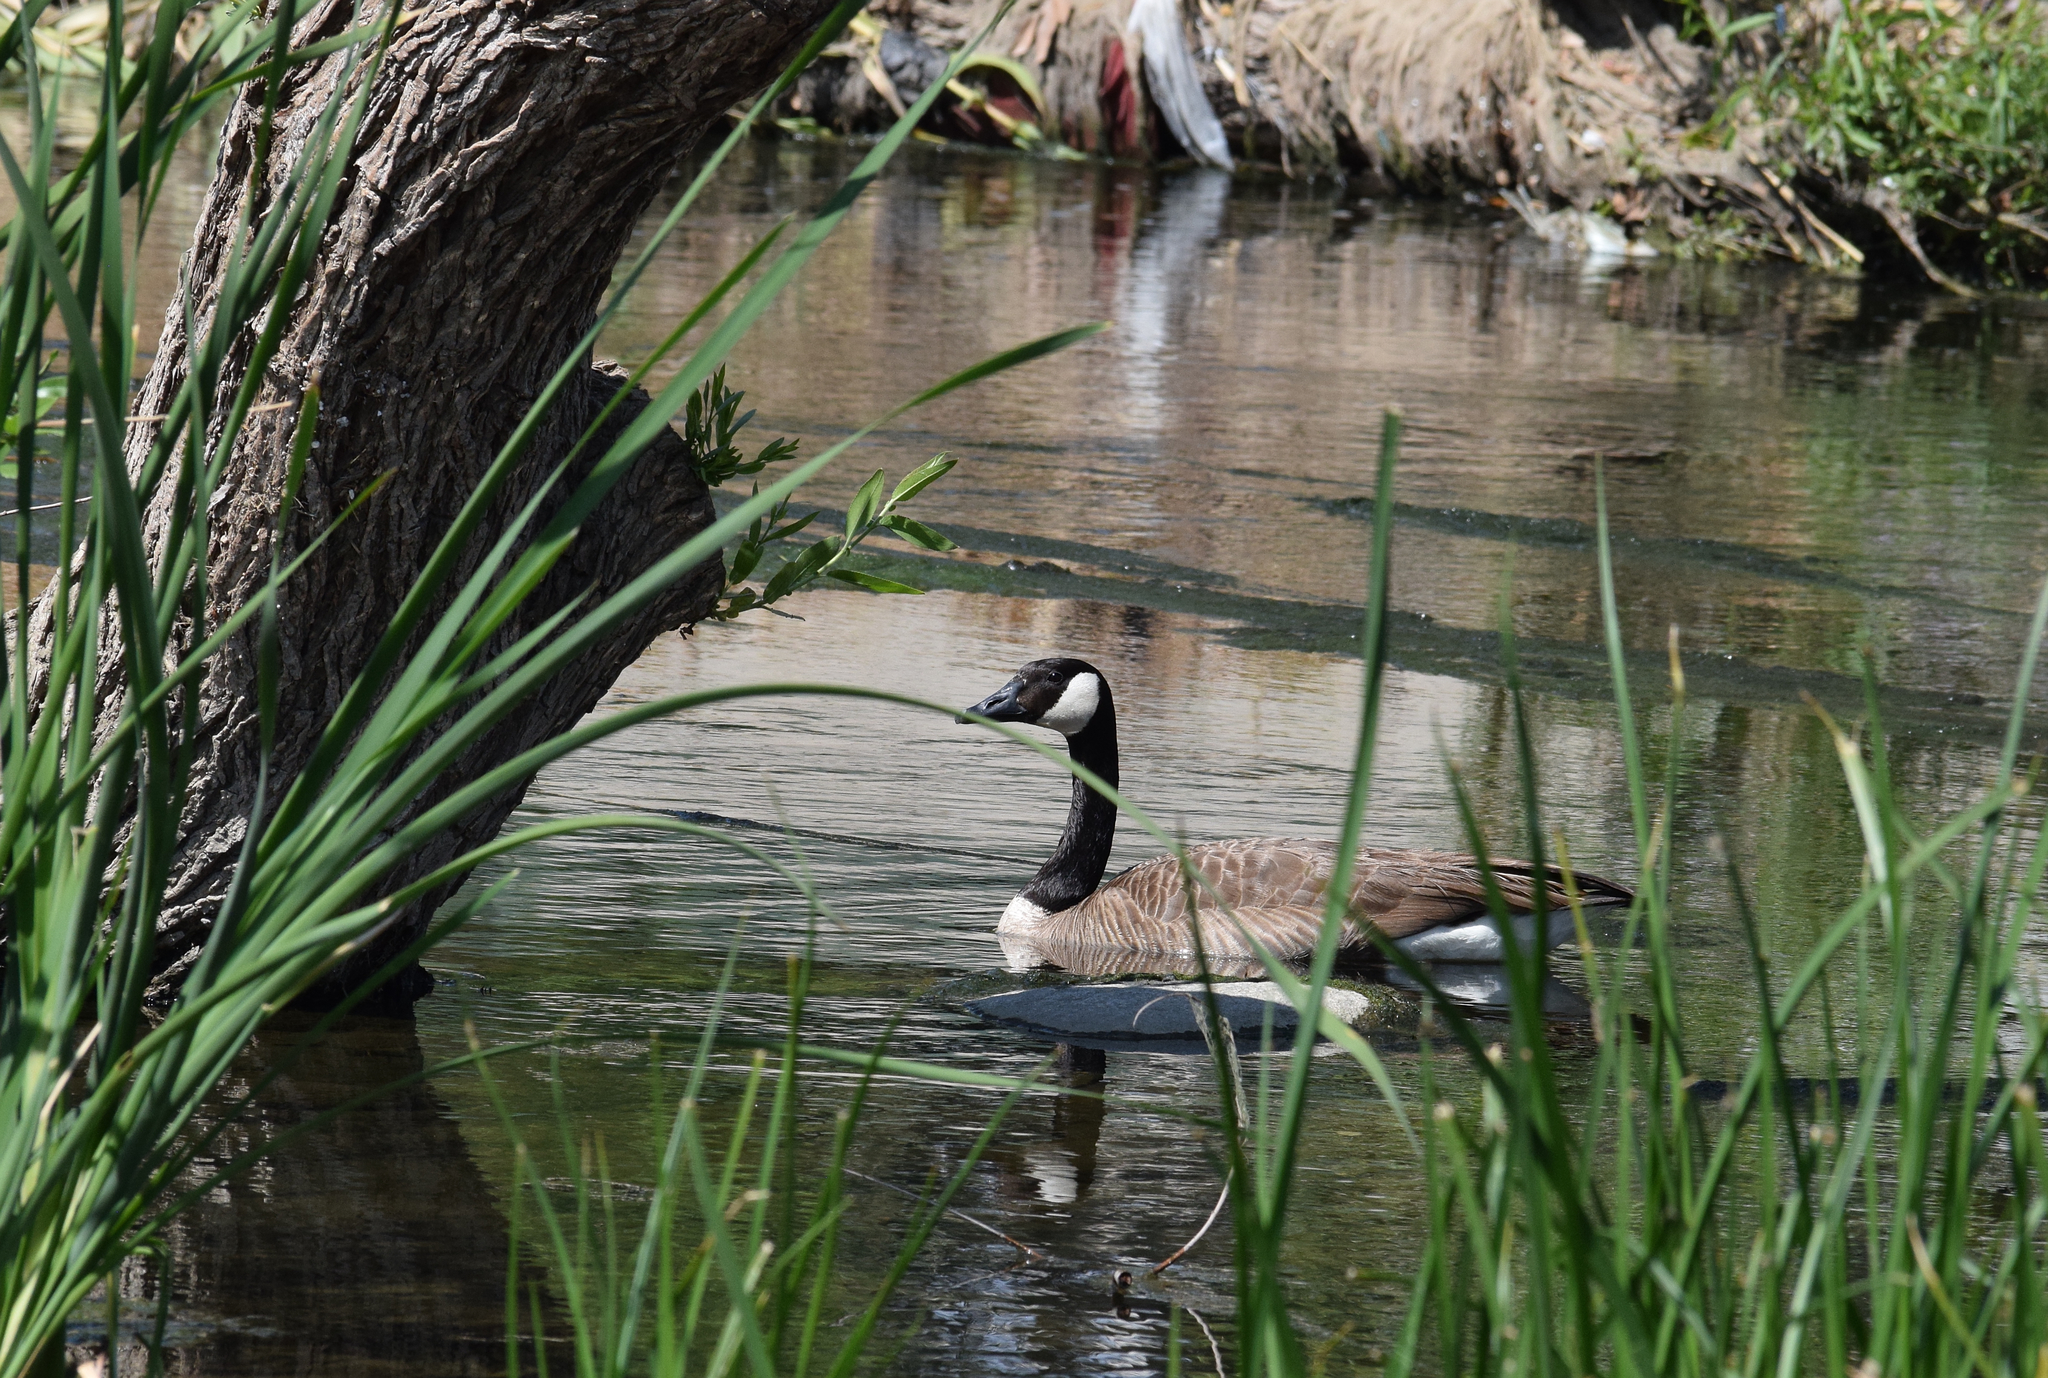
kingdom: Animalia
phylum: Chordata
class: Aves
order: Anseriformes
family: Anatidae
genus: Branta
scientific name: Branta canadensis
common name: Canada goose
